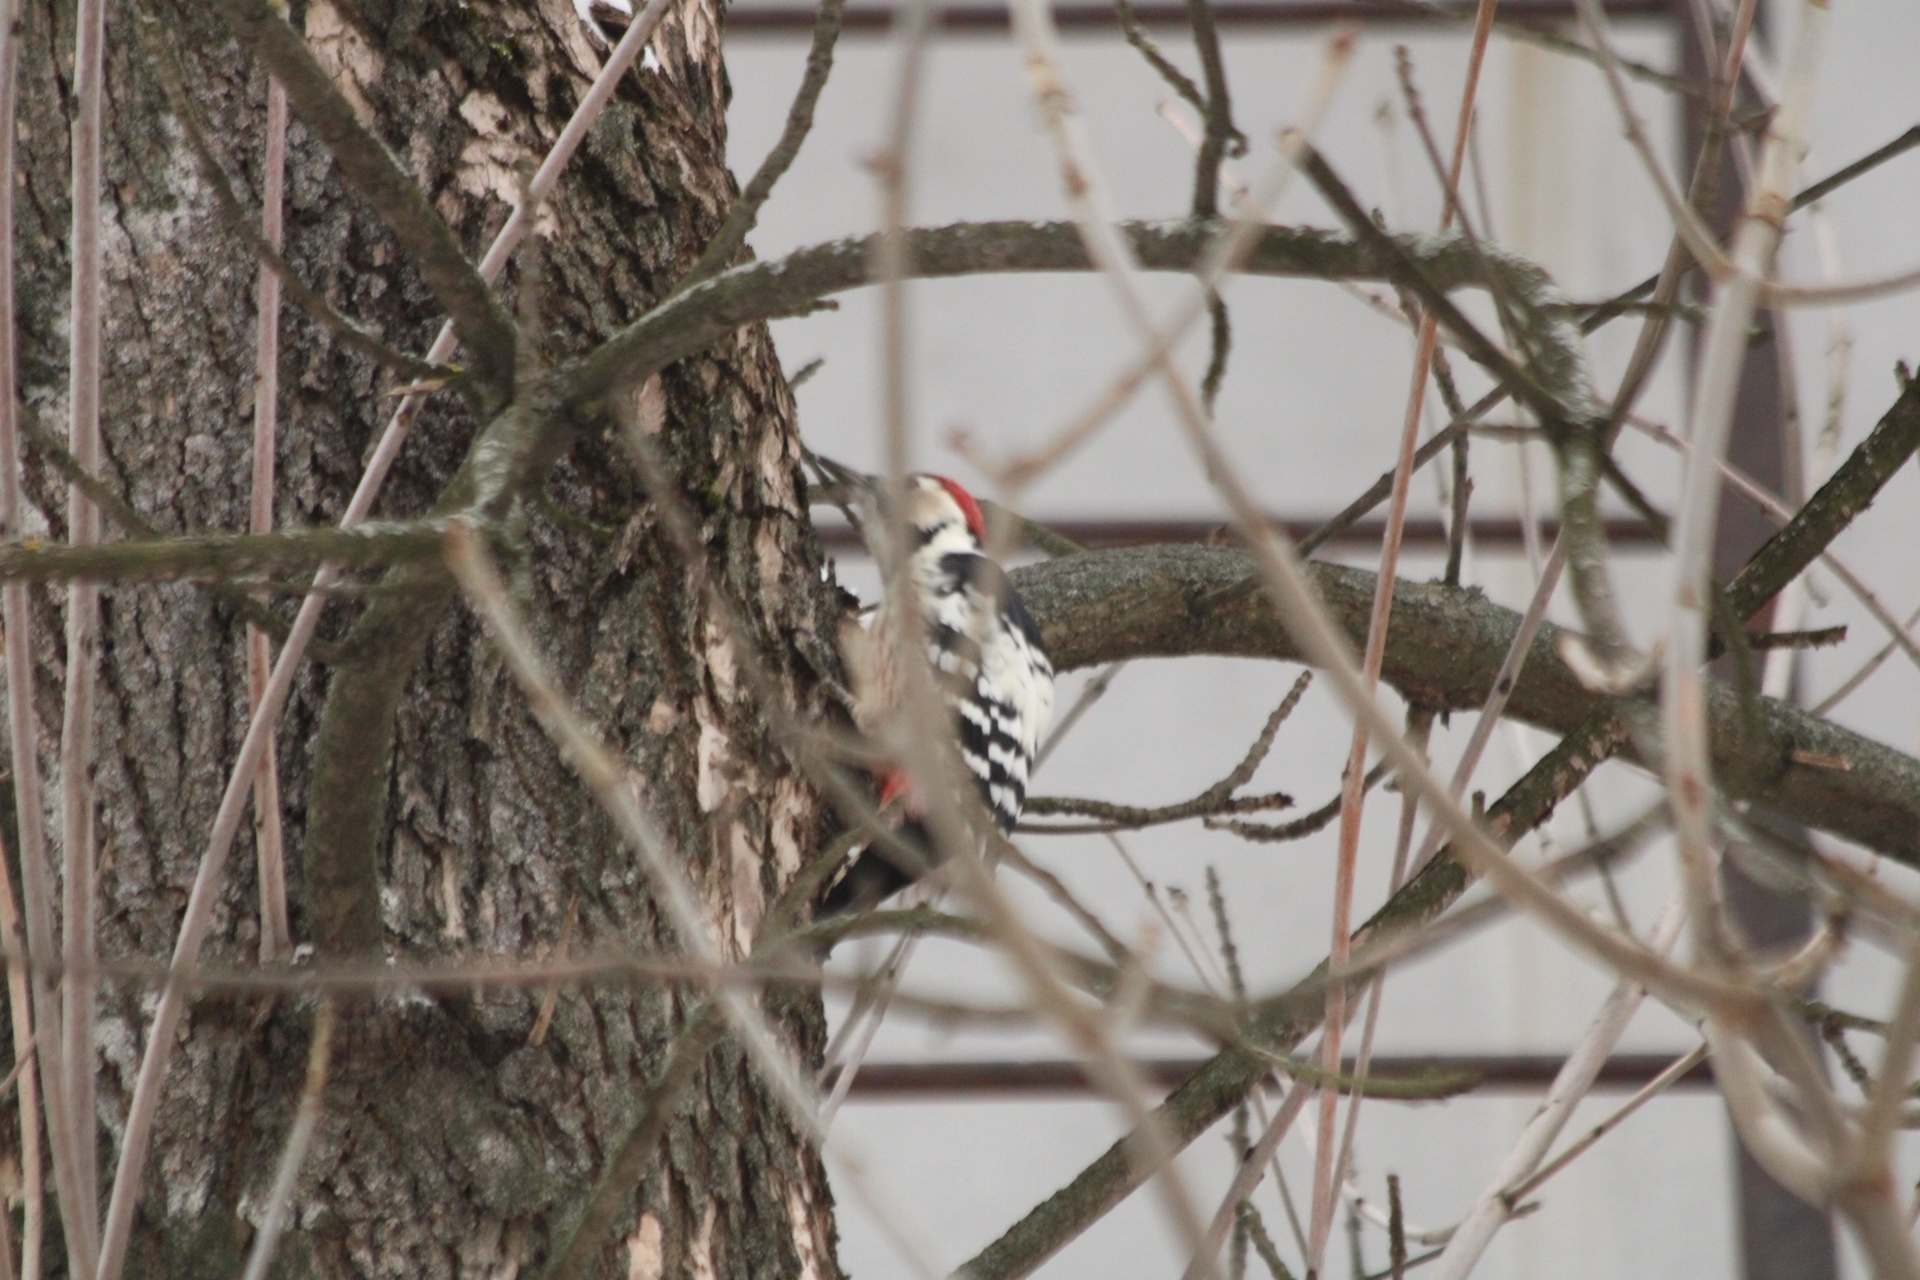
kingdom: Animalia
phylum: Chordata
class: Aves
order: Piciformes
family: Picidae
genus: Dendrocopos
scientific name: Dendrocopos leucotos
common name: White-backed woodpecker
